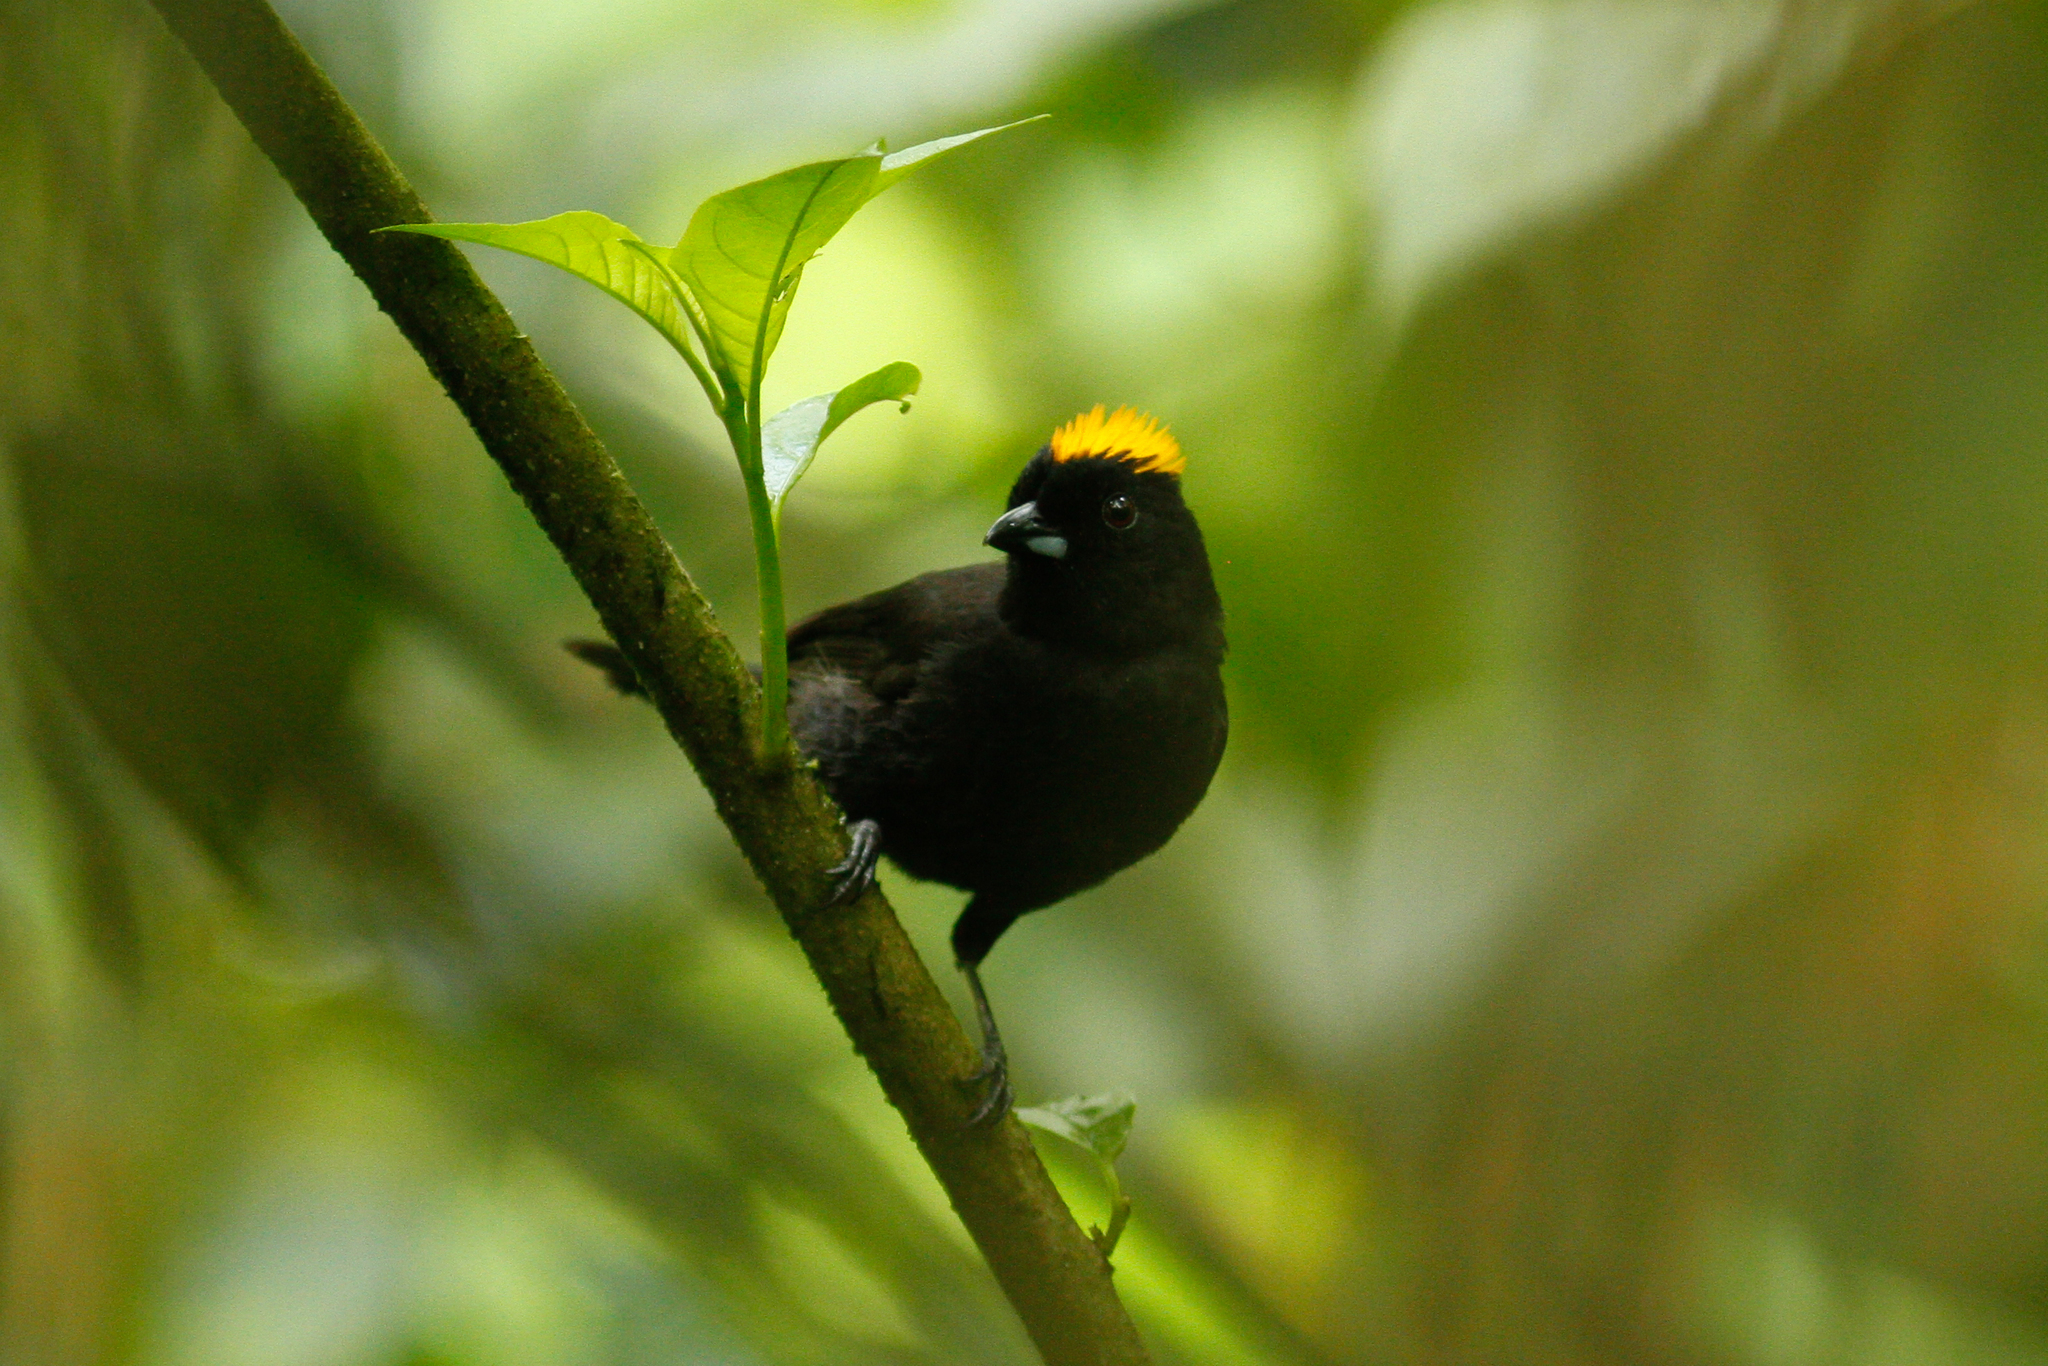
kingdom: Animalia
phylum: Chordata
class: Aves
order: Passeriformes
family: Thraupidae
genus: Tachyphonus
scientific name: Tachyphonus delatrii
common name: Tawny-crested tanager
